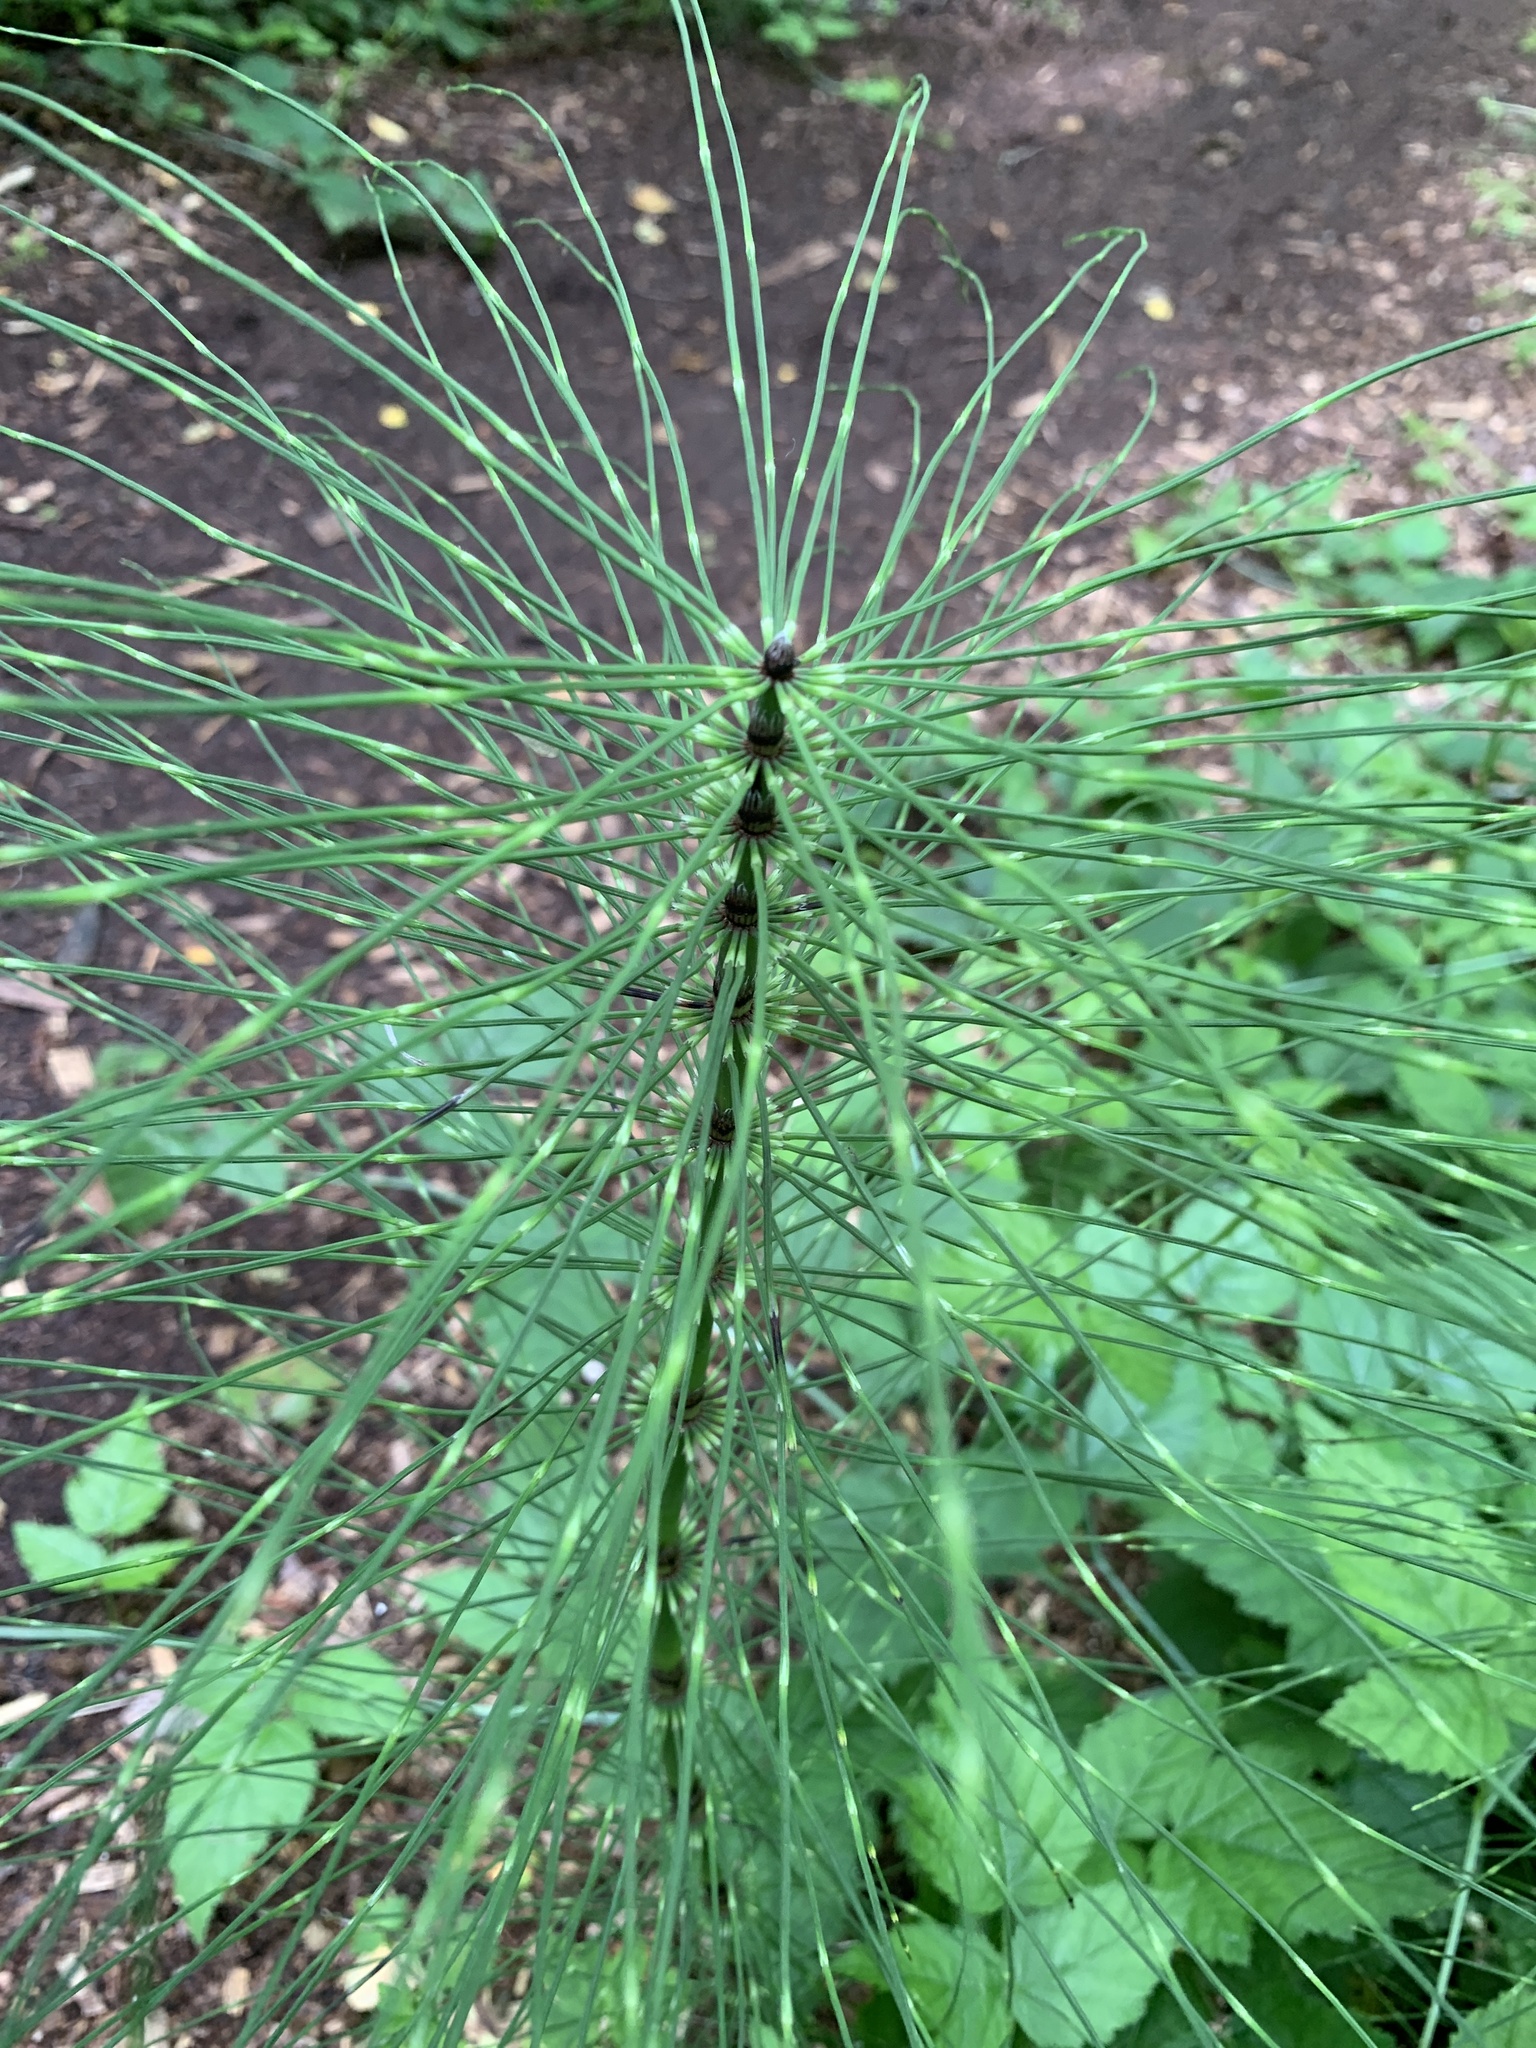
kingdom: Plantae
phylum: Tracheophyta
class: Polypodiopsida
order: Equisetales
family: Equisetaceae
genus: Equisetum
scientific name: Equisetum braunii
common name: Braun's horsetail
